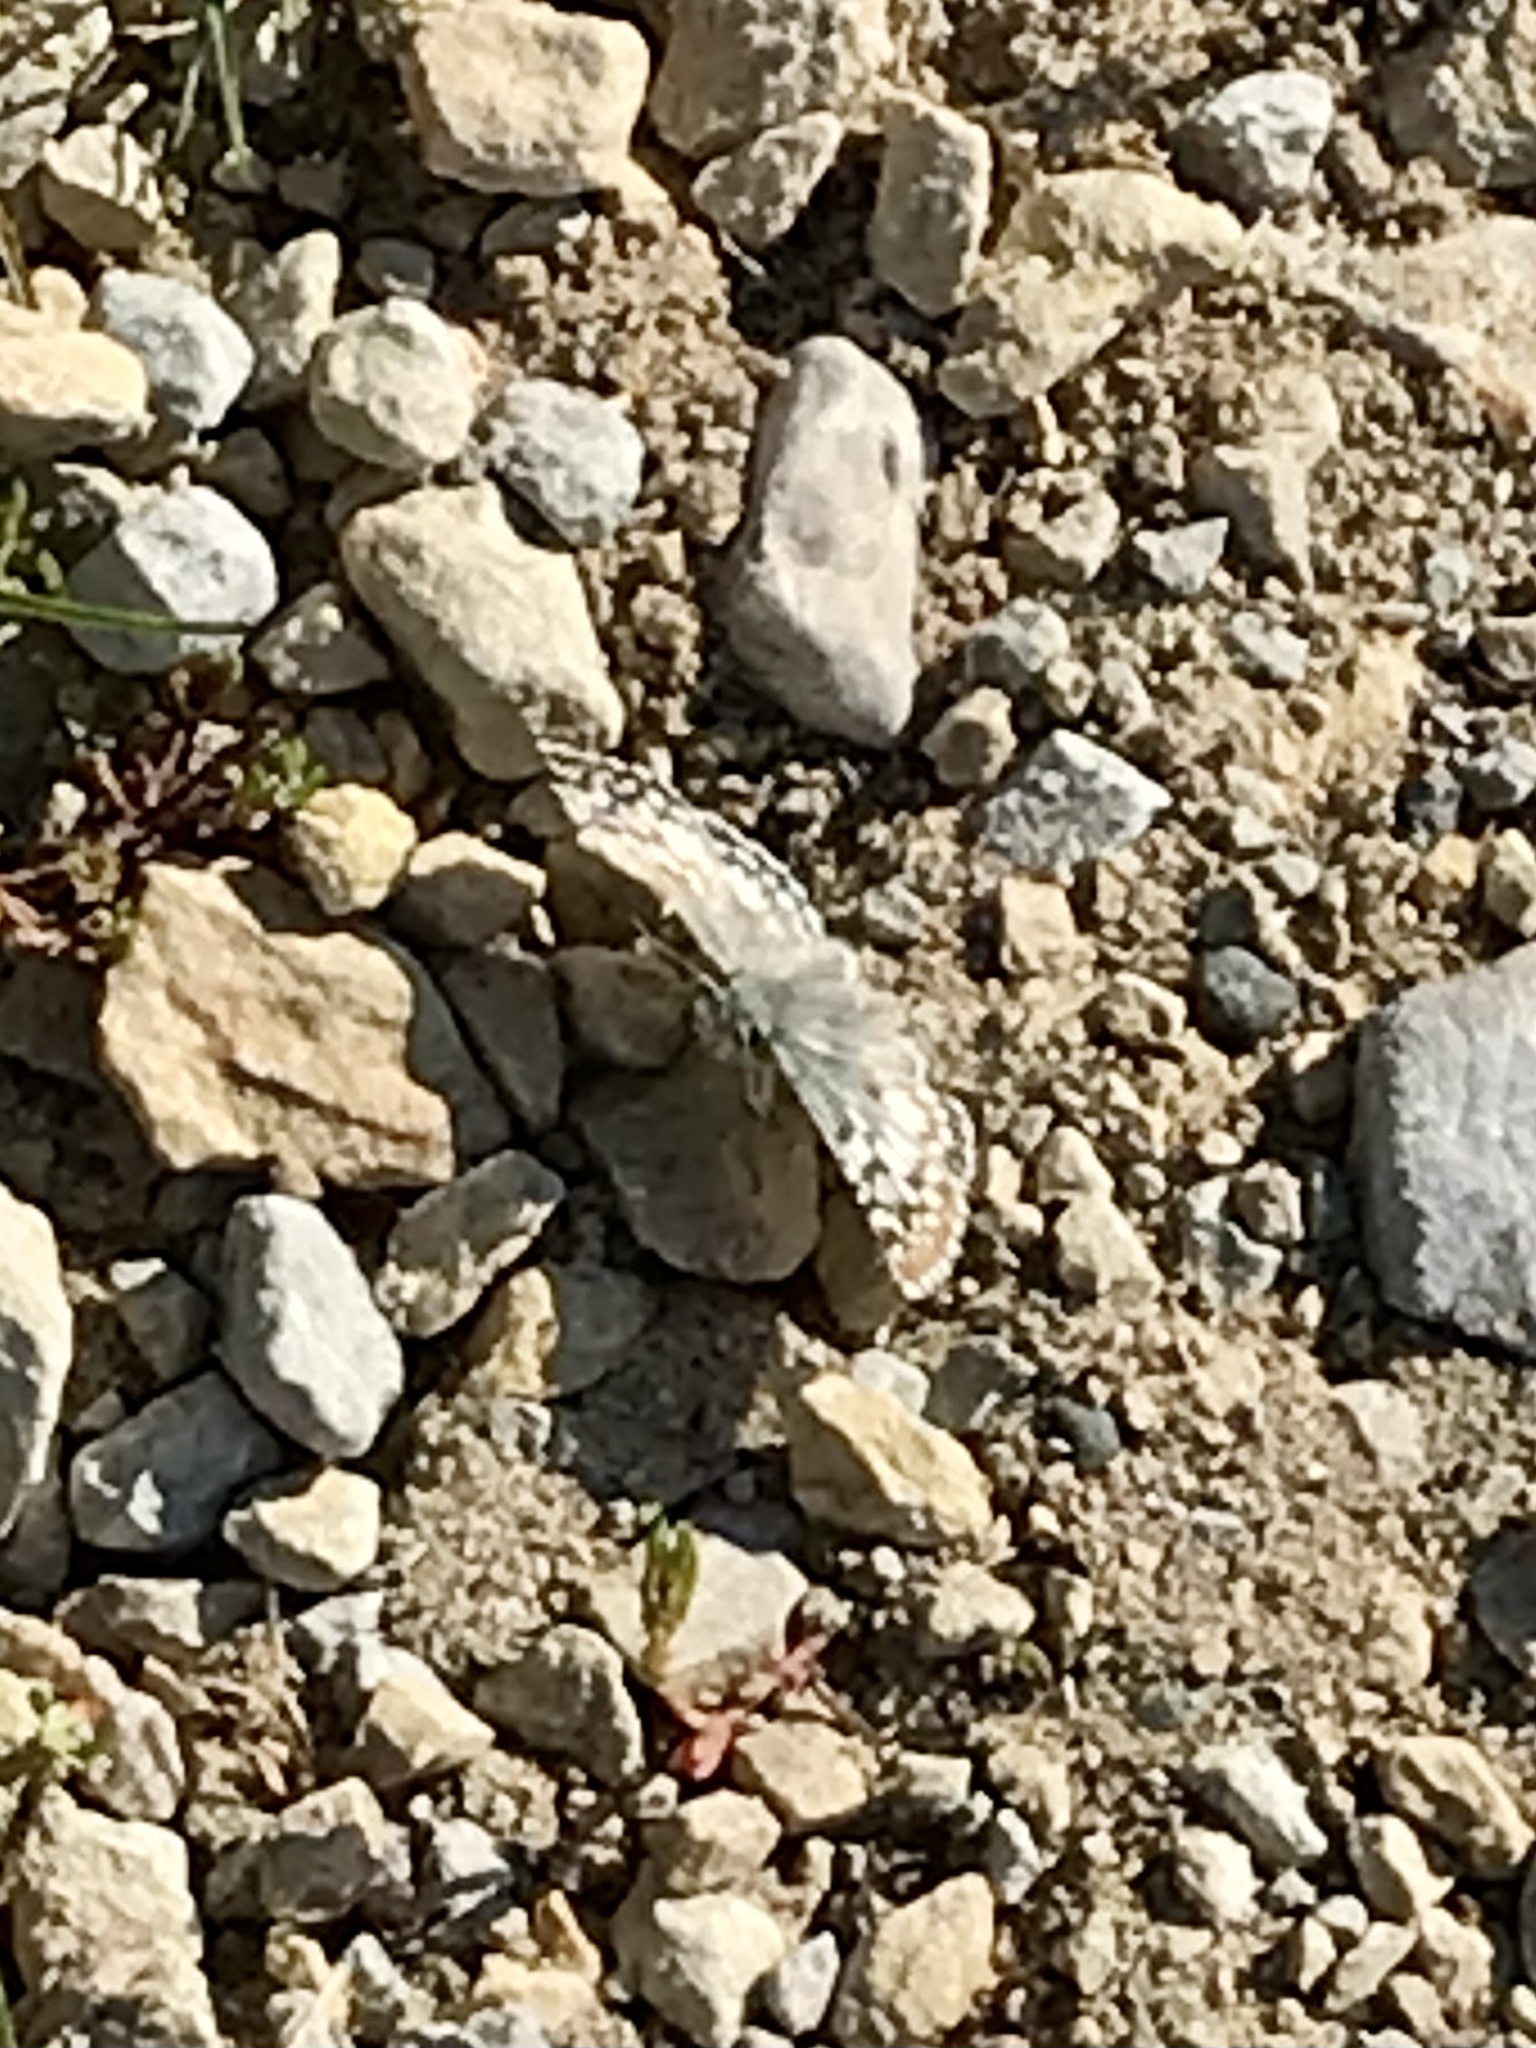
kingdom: Animalia
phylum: Arthropoda
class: Insecta
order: Lepidoptera
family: Hesperiidae
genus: Burnsius
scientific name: Burnsius communis
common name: Common checkered-skipper
